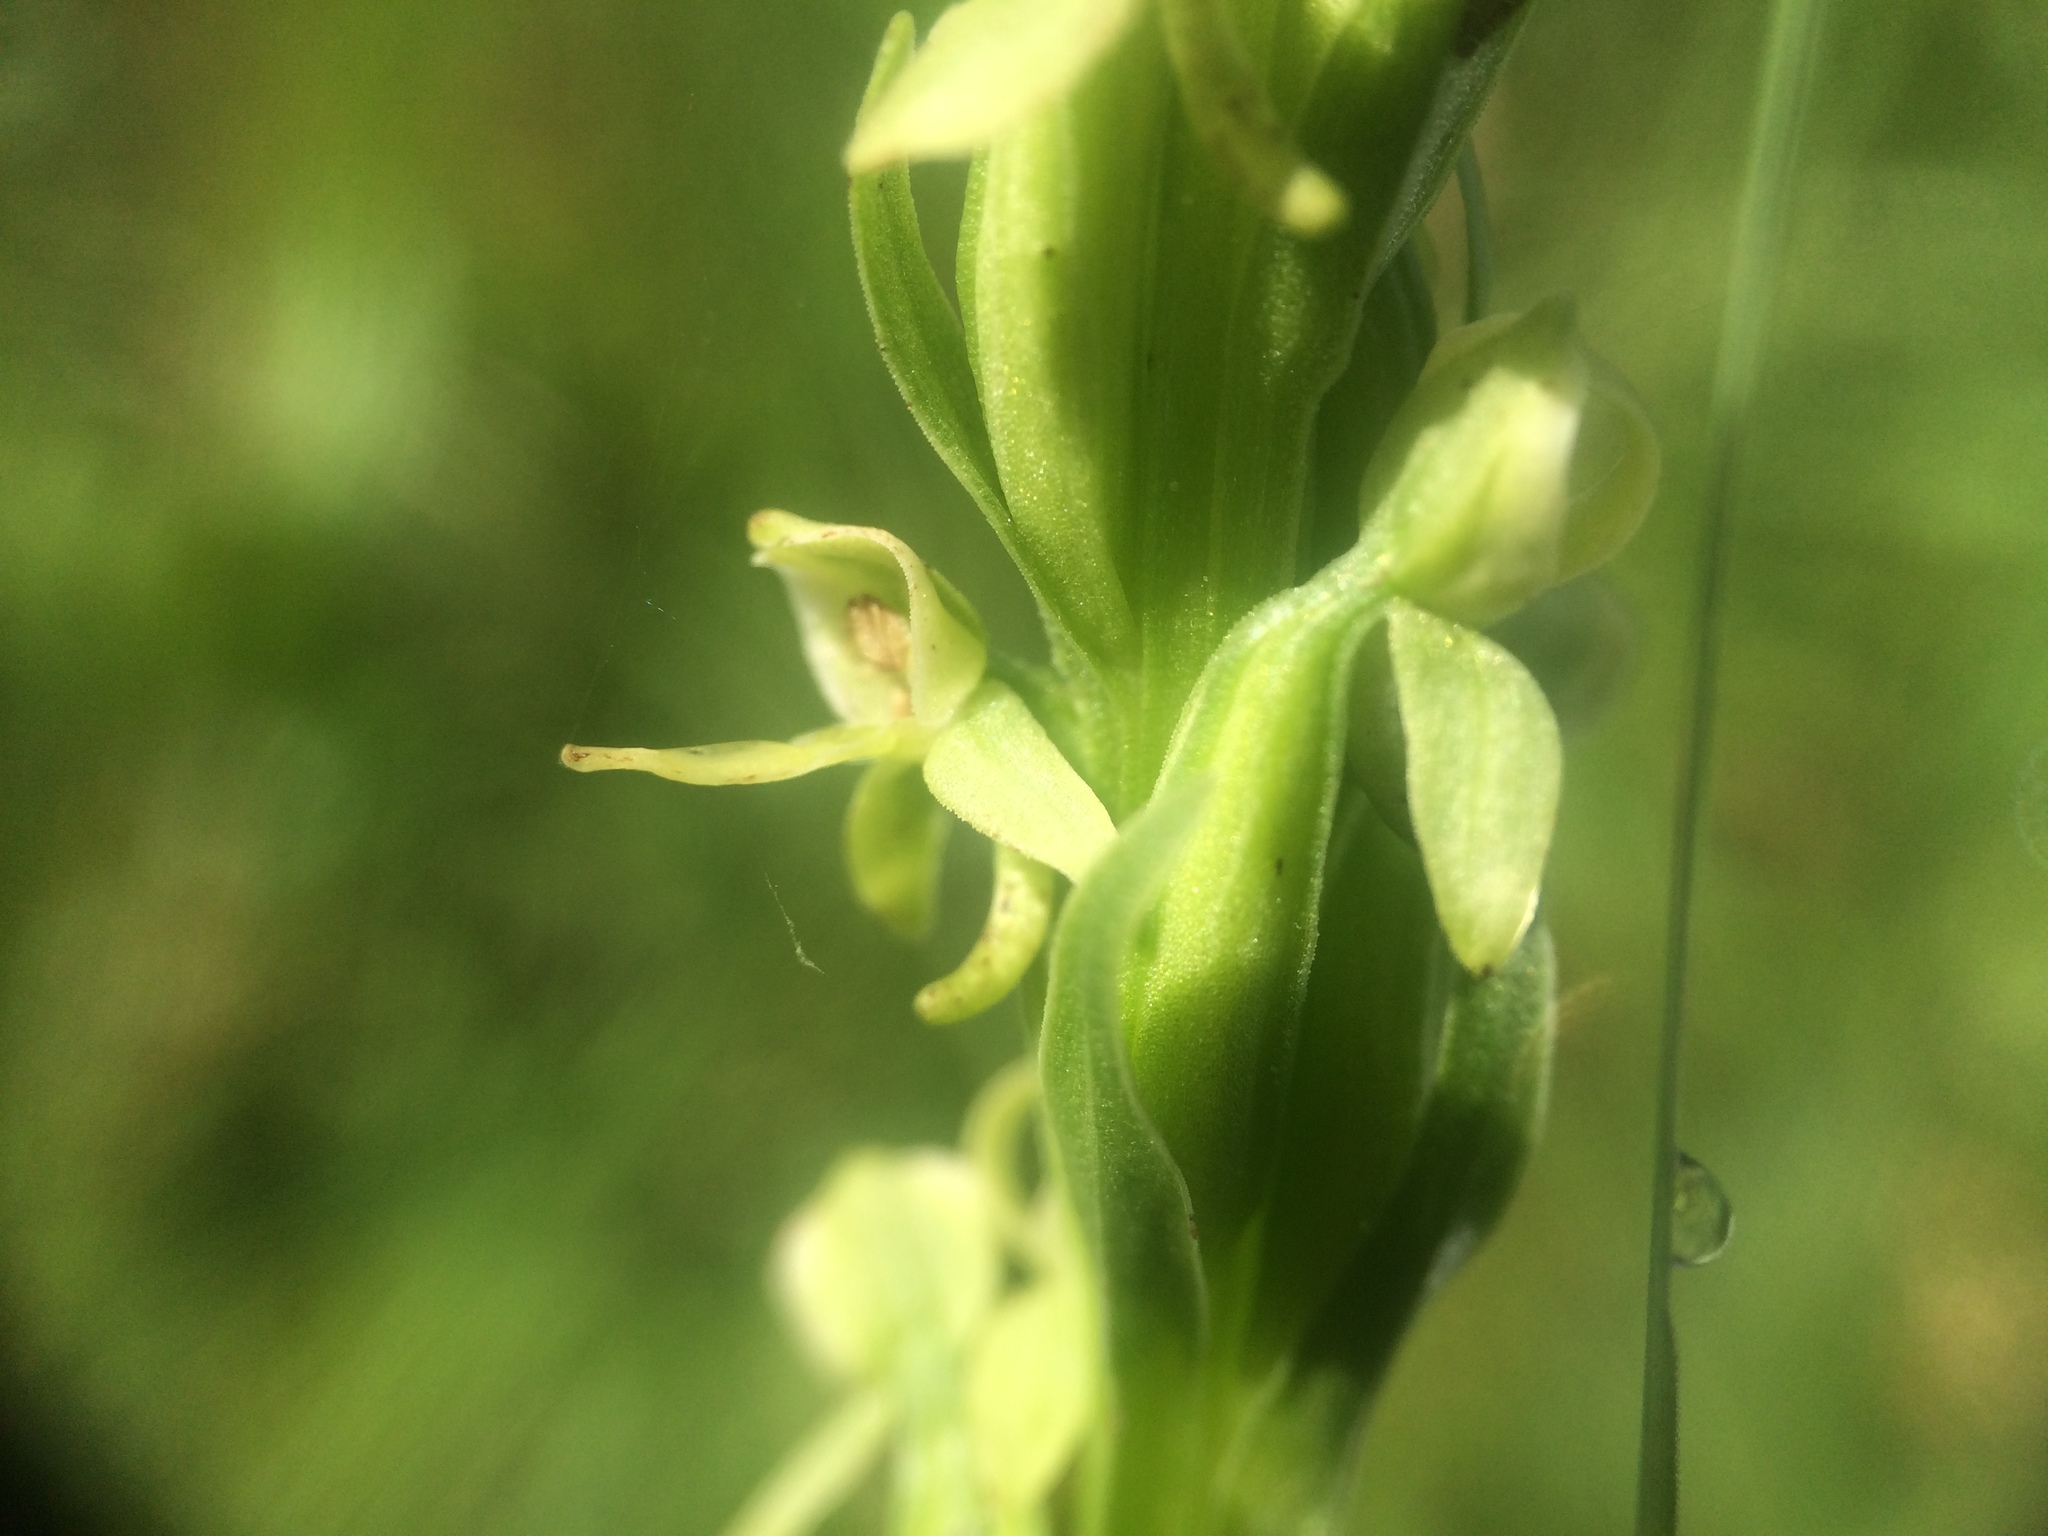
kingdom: Plantae
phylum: Tracheophyta
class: Liliopsida
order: Asparagales
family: Orchidaceae
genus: Platanthera
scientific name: Platanthera huronensis
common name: Fragrant green orchid
